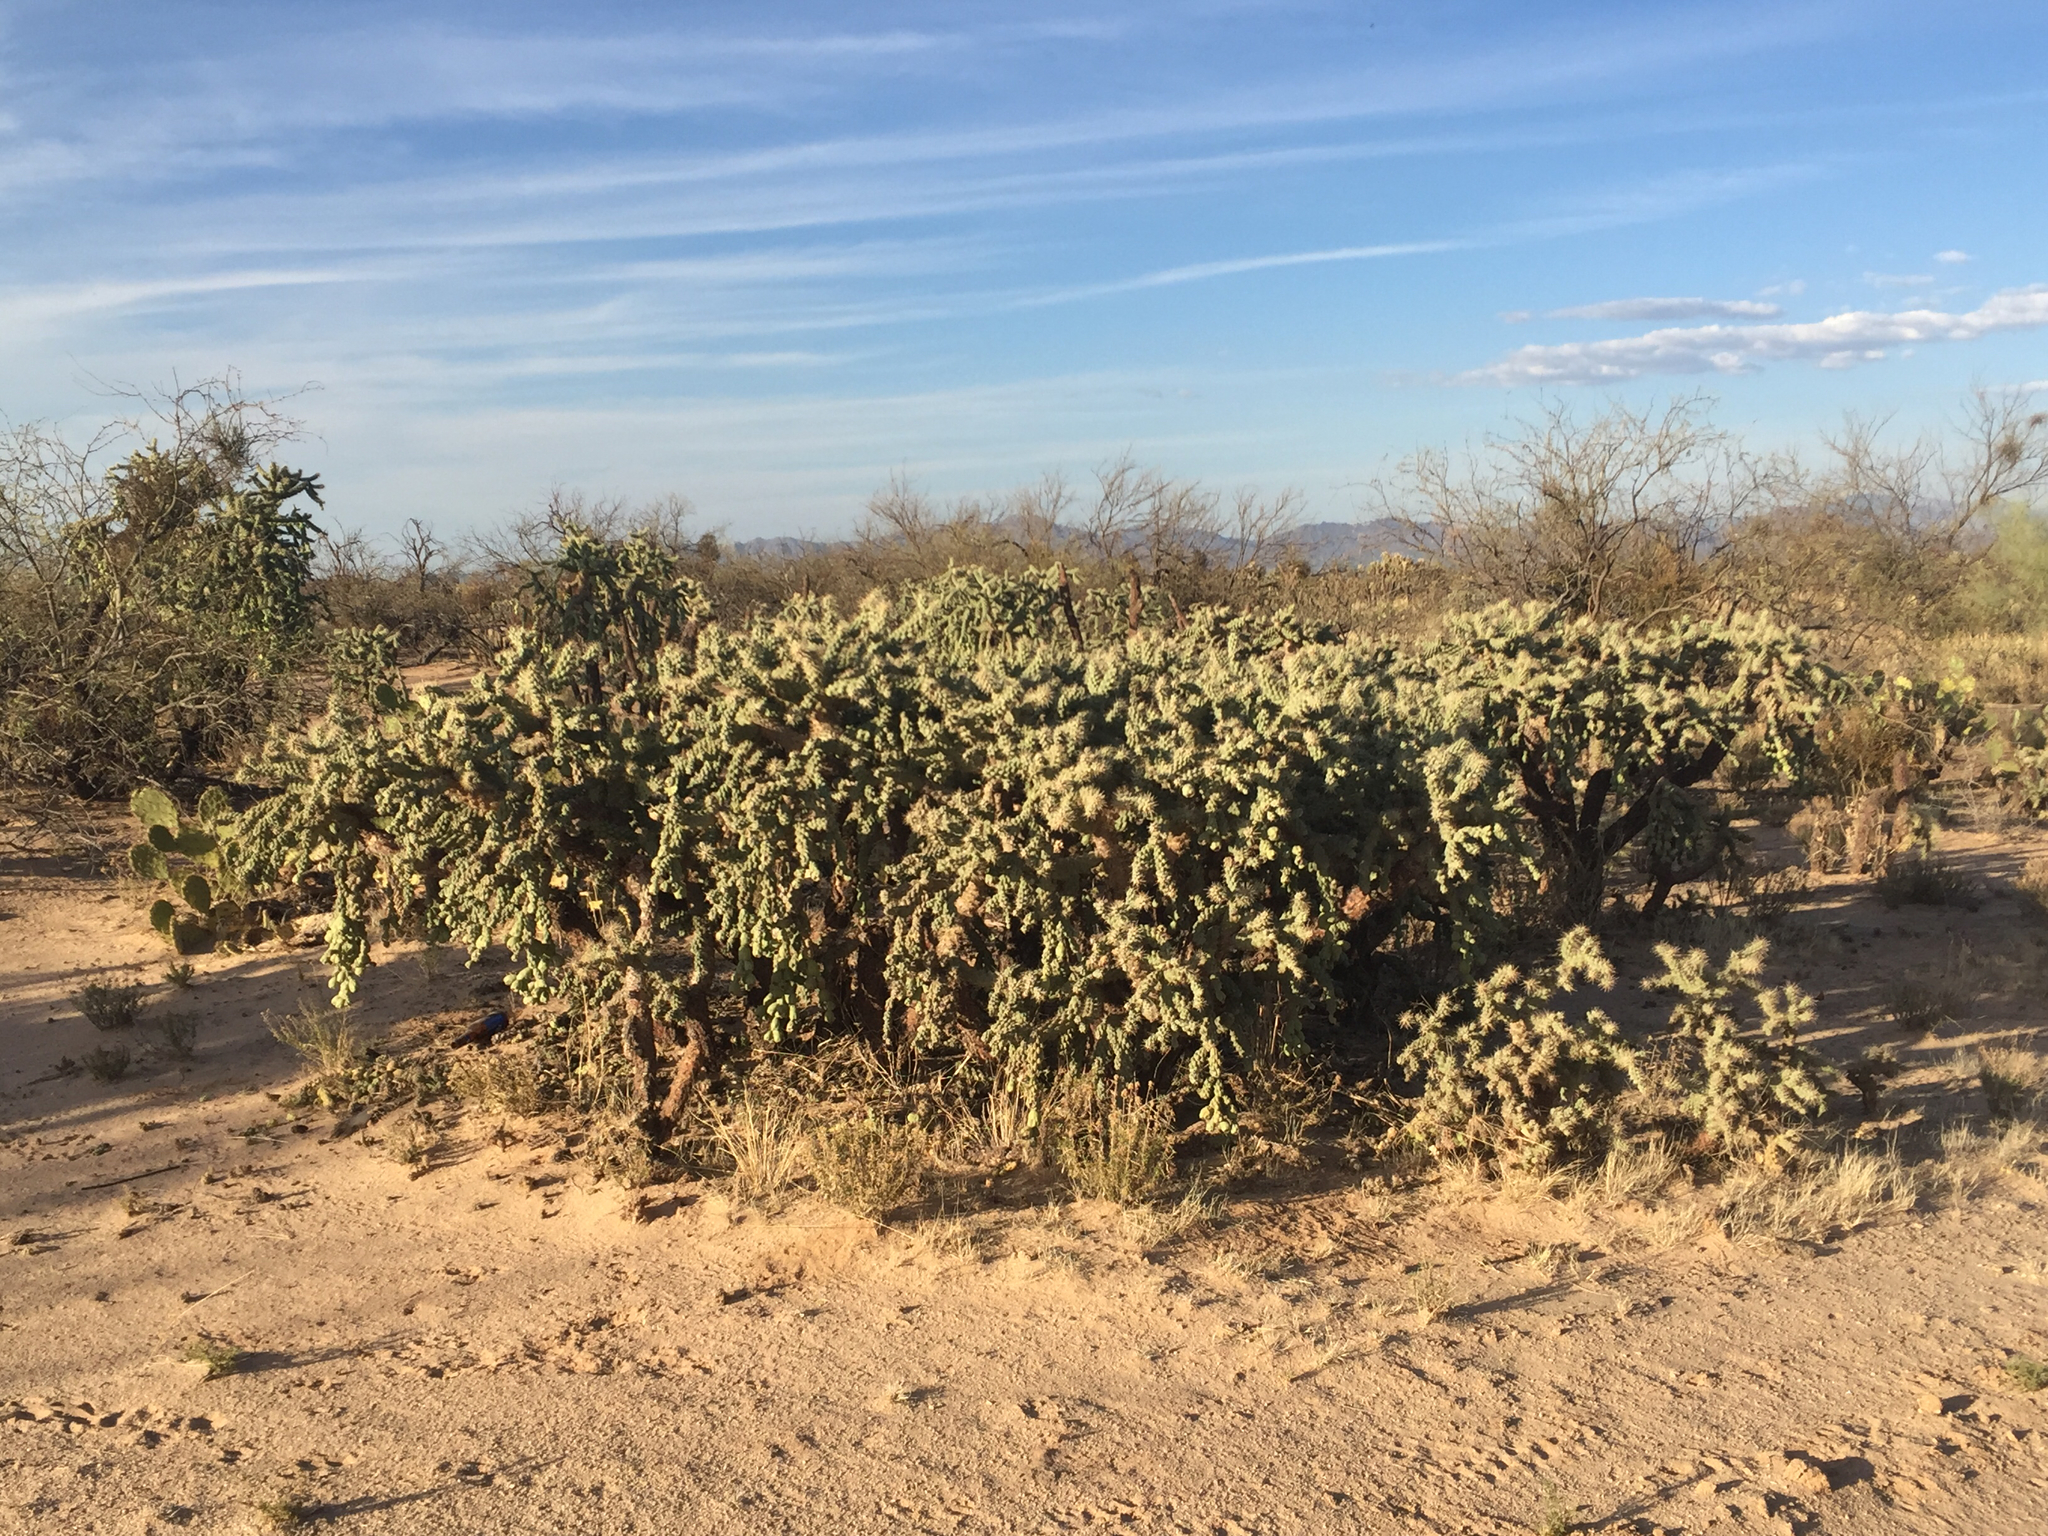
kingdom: Plantae
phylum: Tracheophyta
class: Magnoliopsida
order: Caryophyllales
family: Cactaceae
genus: Cylindropuntia
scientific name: Cylindropuntia fulgida
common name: Jumping cholla
